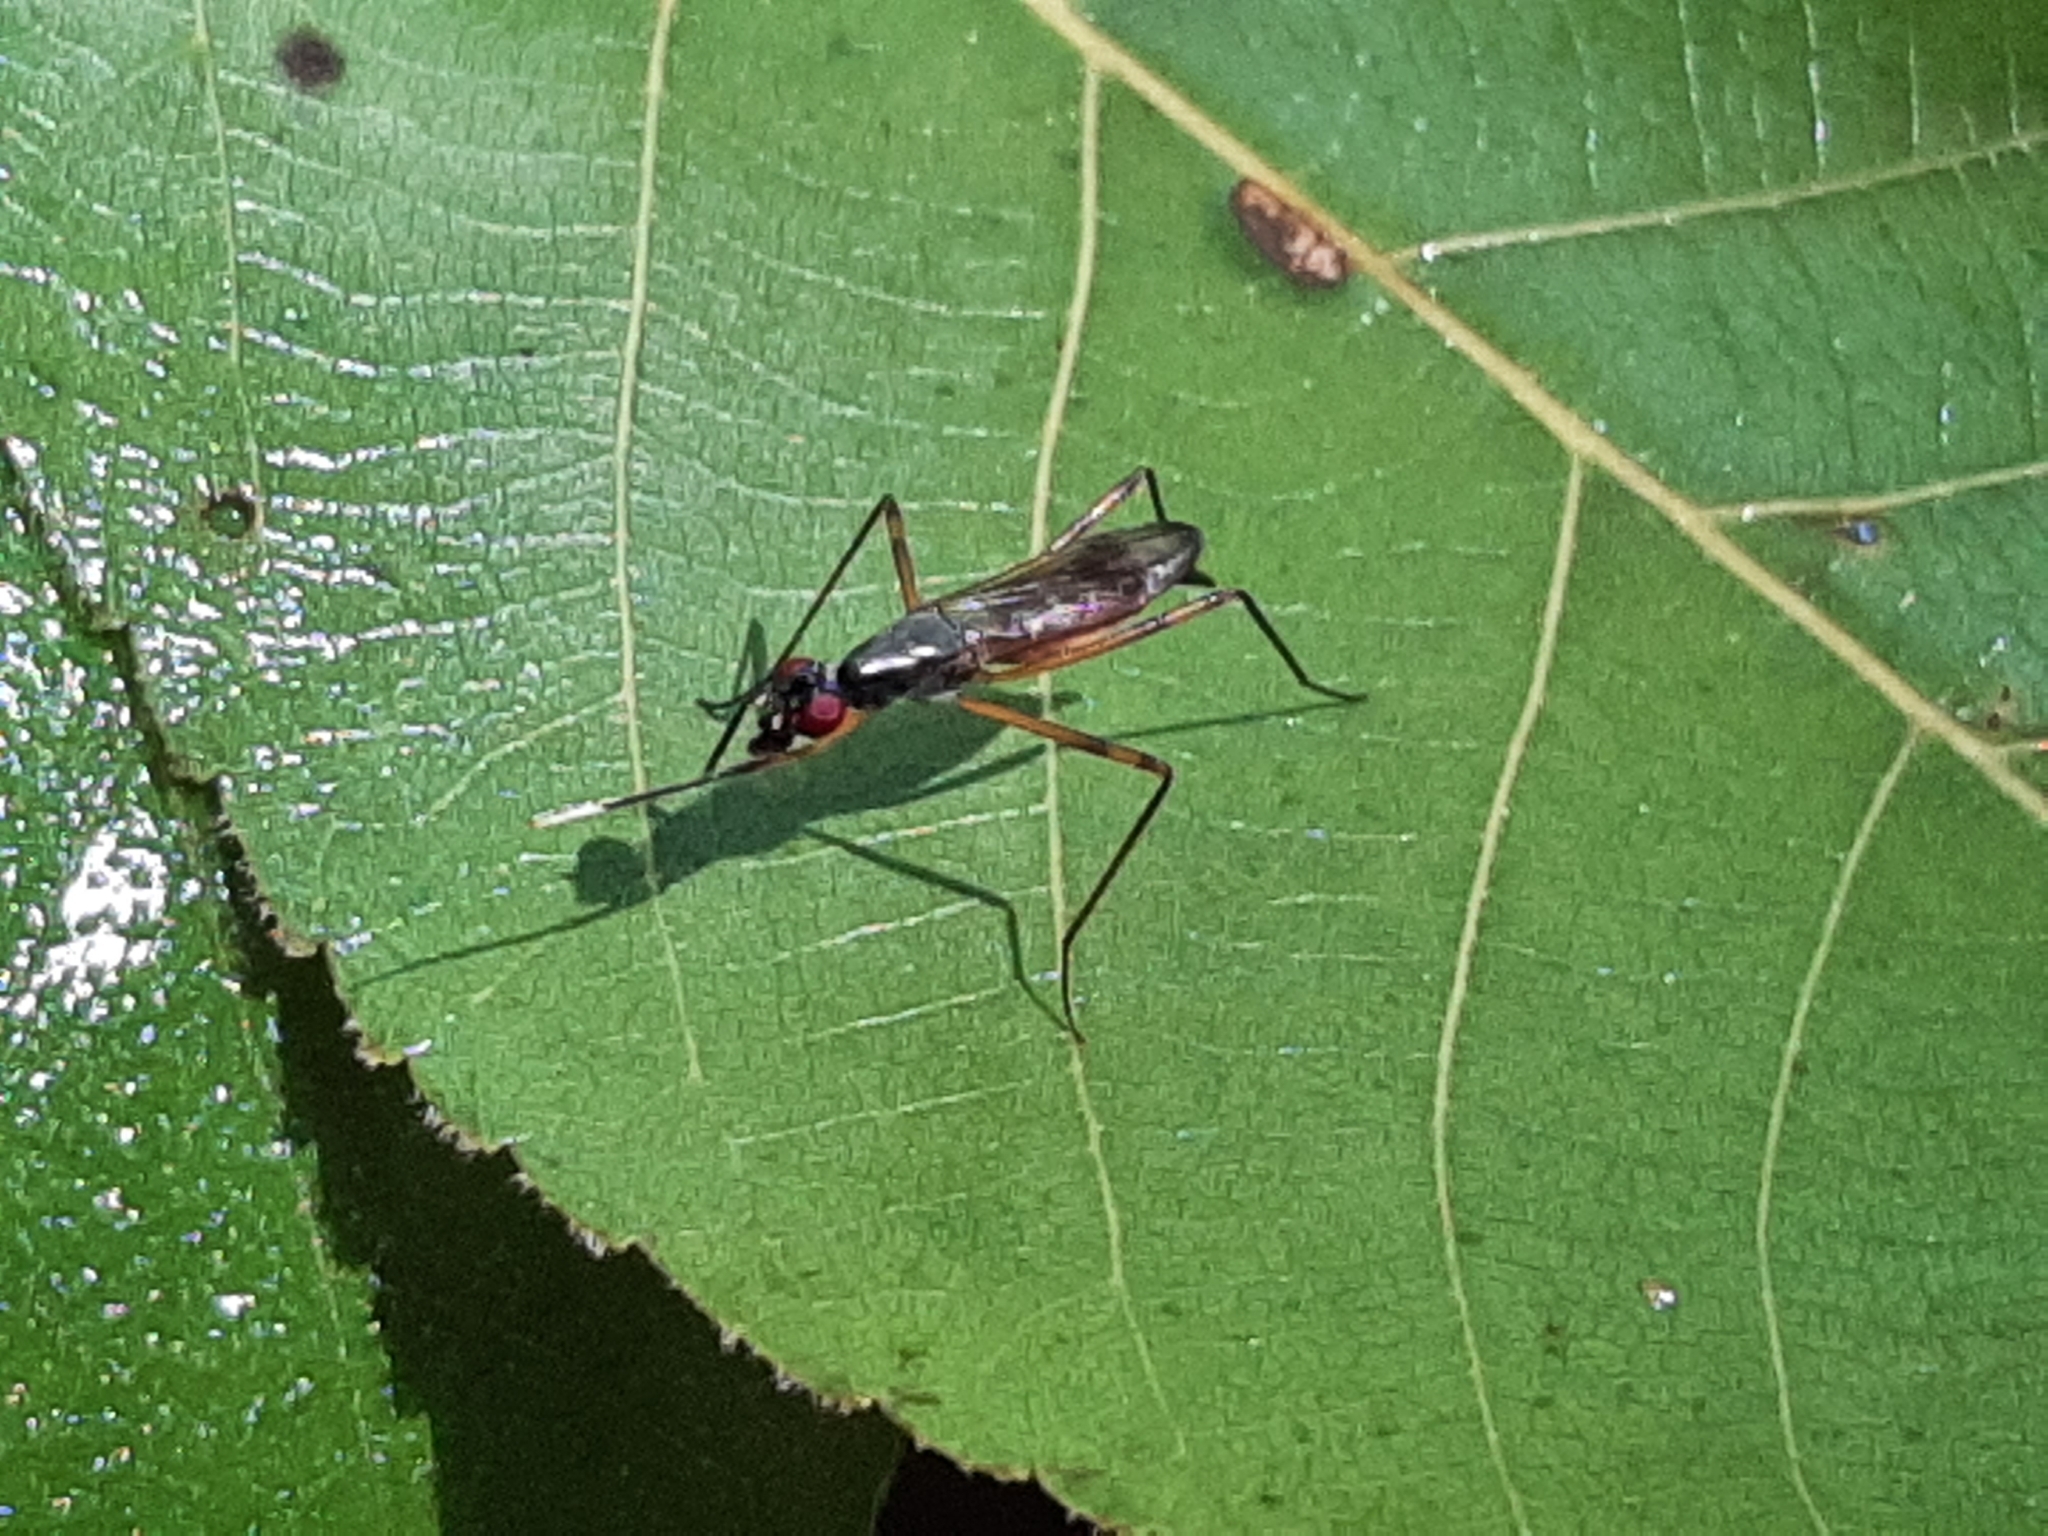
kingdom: Animalia
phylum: Arthropoda
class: Insecta
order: Diptera
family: Micropezidae
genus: Rainieria
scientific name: Rainieria antennaepes
